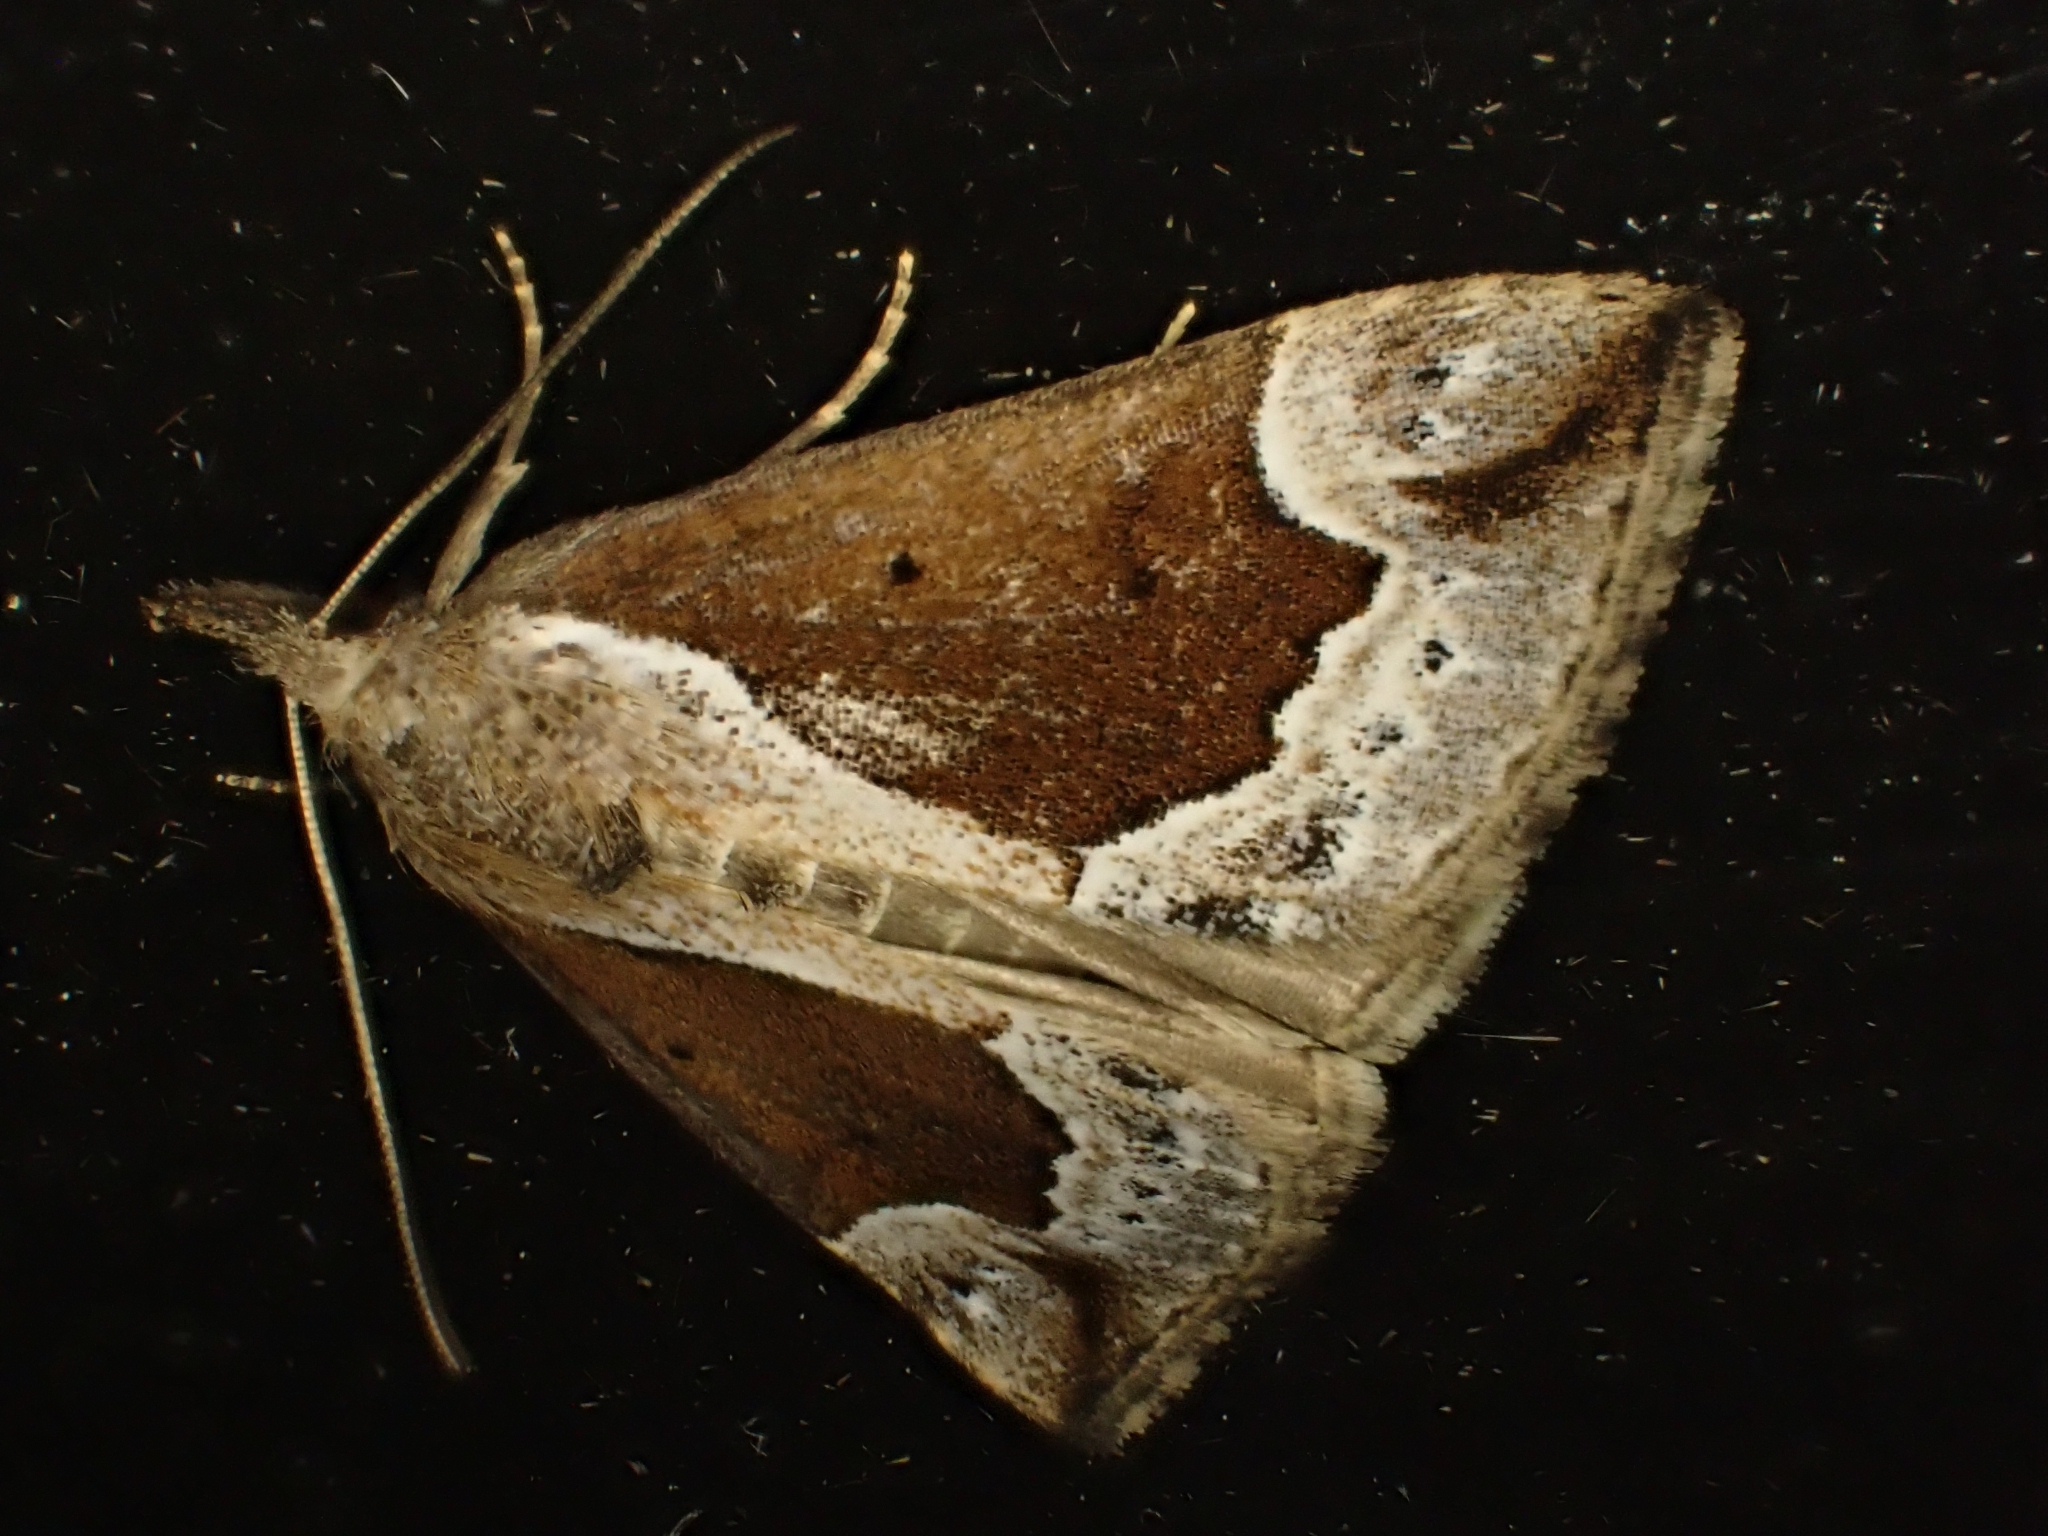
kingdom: Animalia
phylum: Arthropoda
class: Insecta
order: Lepidoptera
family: Erebidae
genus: Hypena
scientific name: Hypena crassalis
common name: Beautiful snout
